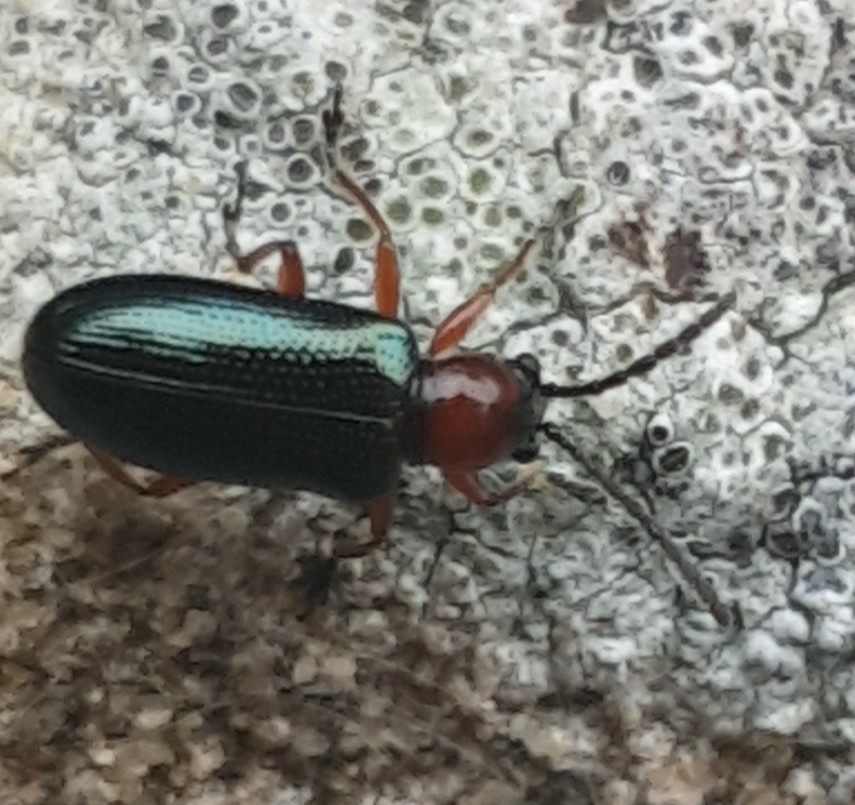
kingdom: Animalia
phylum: Arthropoda
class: Insecta
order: Coleoptera
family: Chrysomelidae
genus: Oulema
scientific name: Oulema
